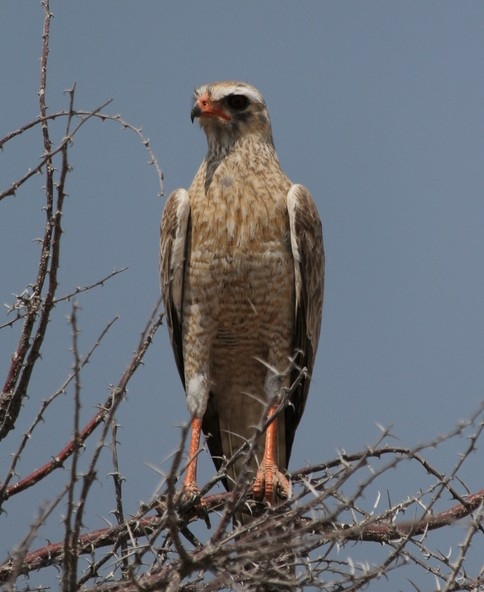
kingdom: Animalia
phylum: Chordata
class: Aves
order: Accipitriformes
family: Accipitridae
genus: Melierax
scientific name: Melierax canorus
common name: Pale chanting-goshawk
